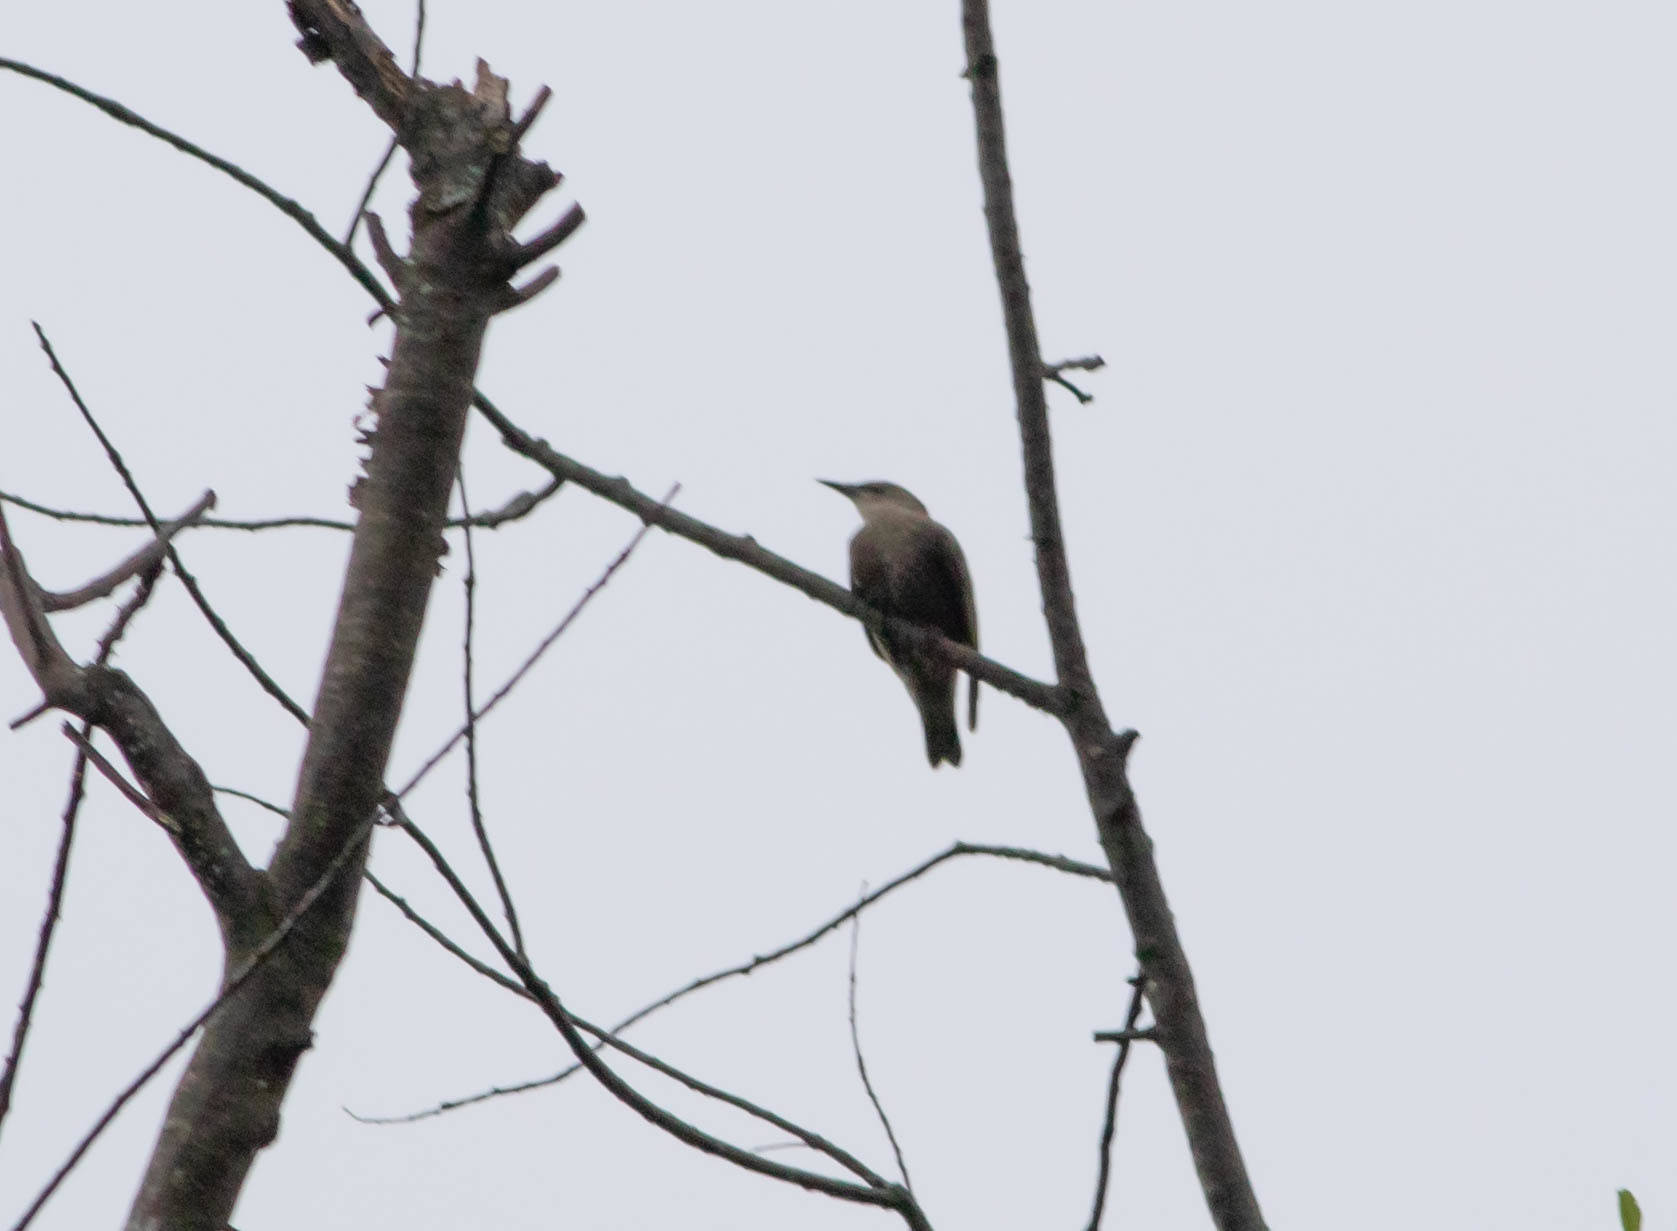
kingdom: Animalia
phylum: Chordata
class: Aves
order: Passeriformes
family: Sturnidae
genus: Sturnus
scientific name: Sturnus vulgaris
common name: Common starling
